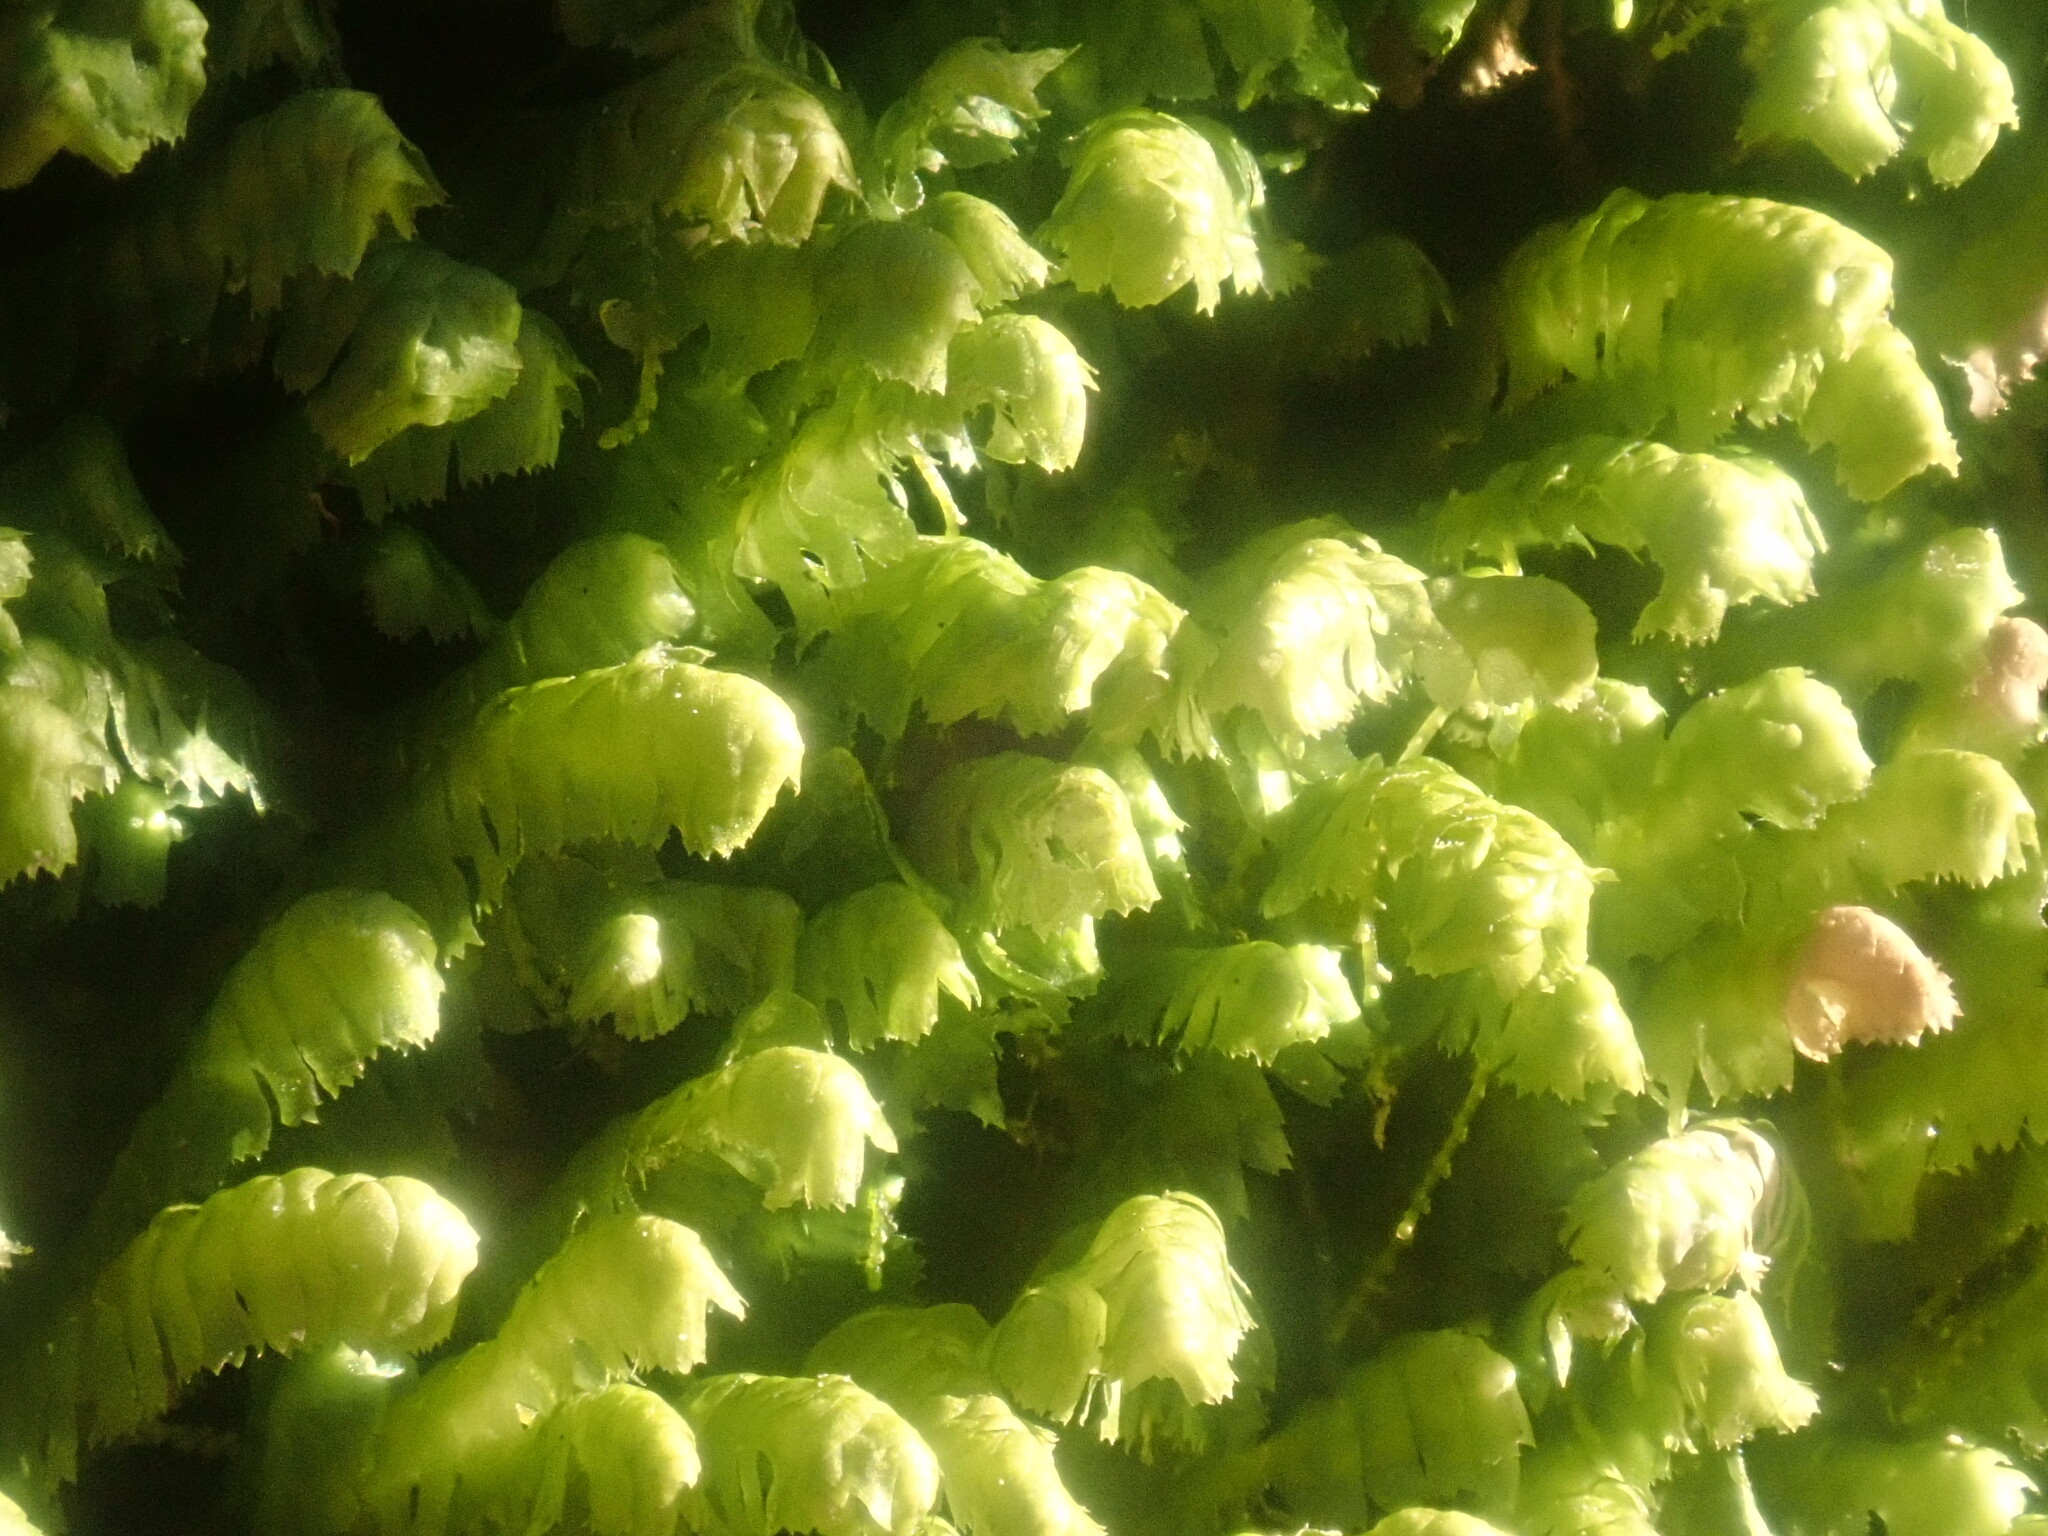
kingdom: Plantae
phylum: Marchantiophyta
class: Jungermanniopsida
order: Jungermanniales
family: Lepidoziaceae
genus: Bazzania
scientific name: Bazzania trilobata
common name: Three-lobed whipwort
